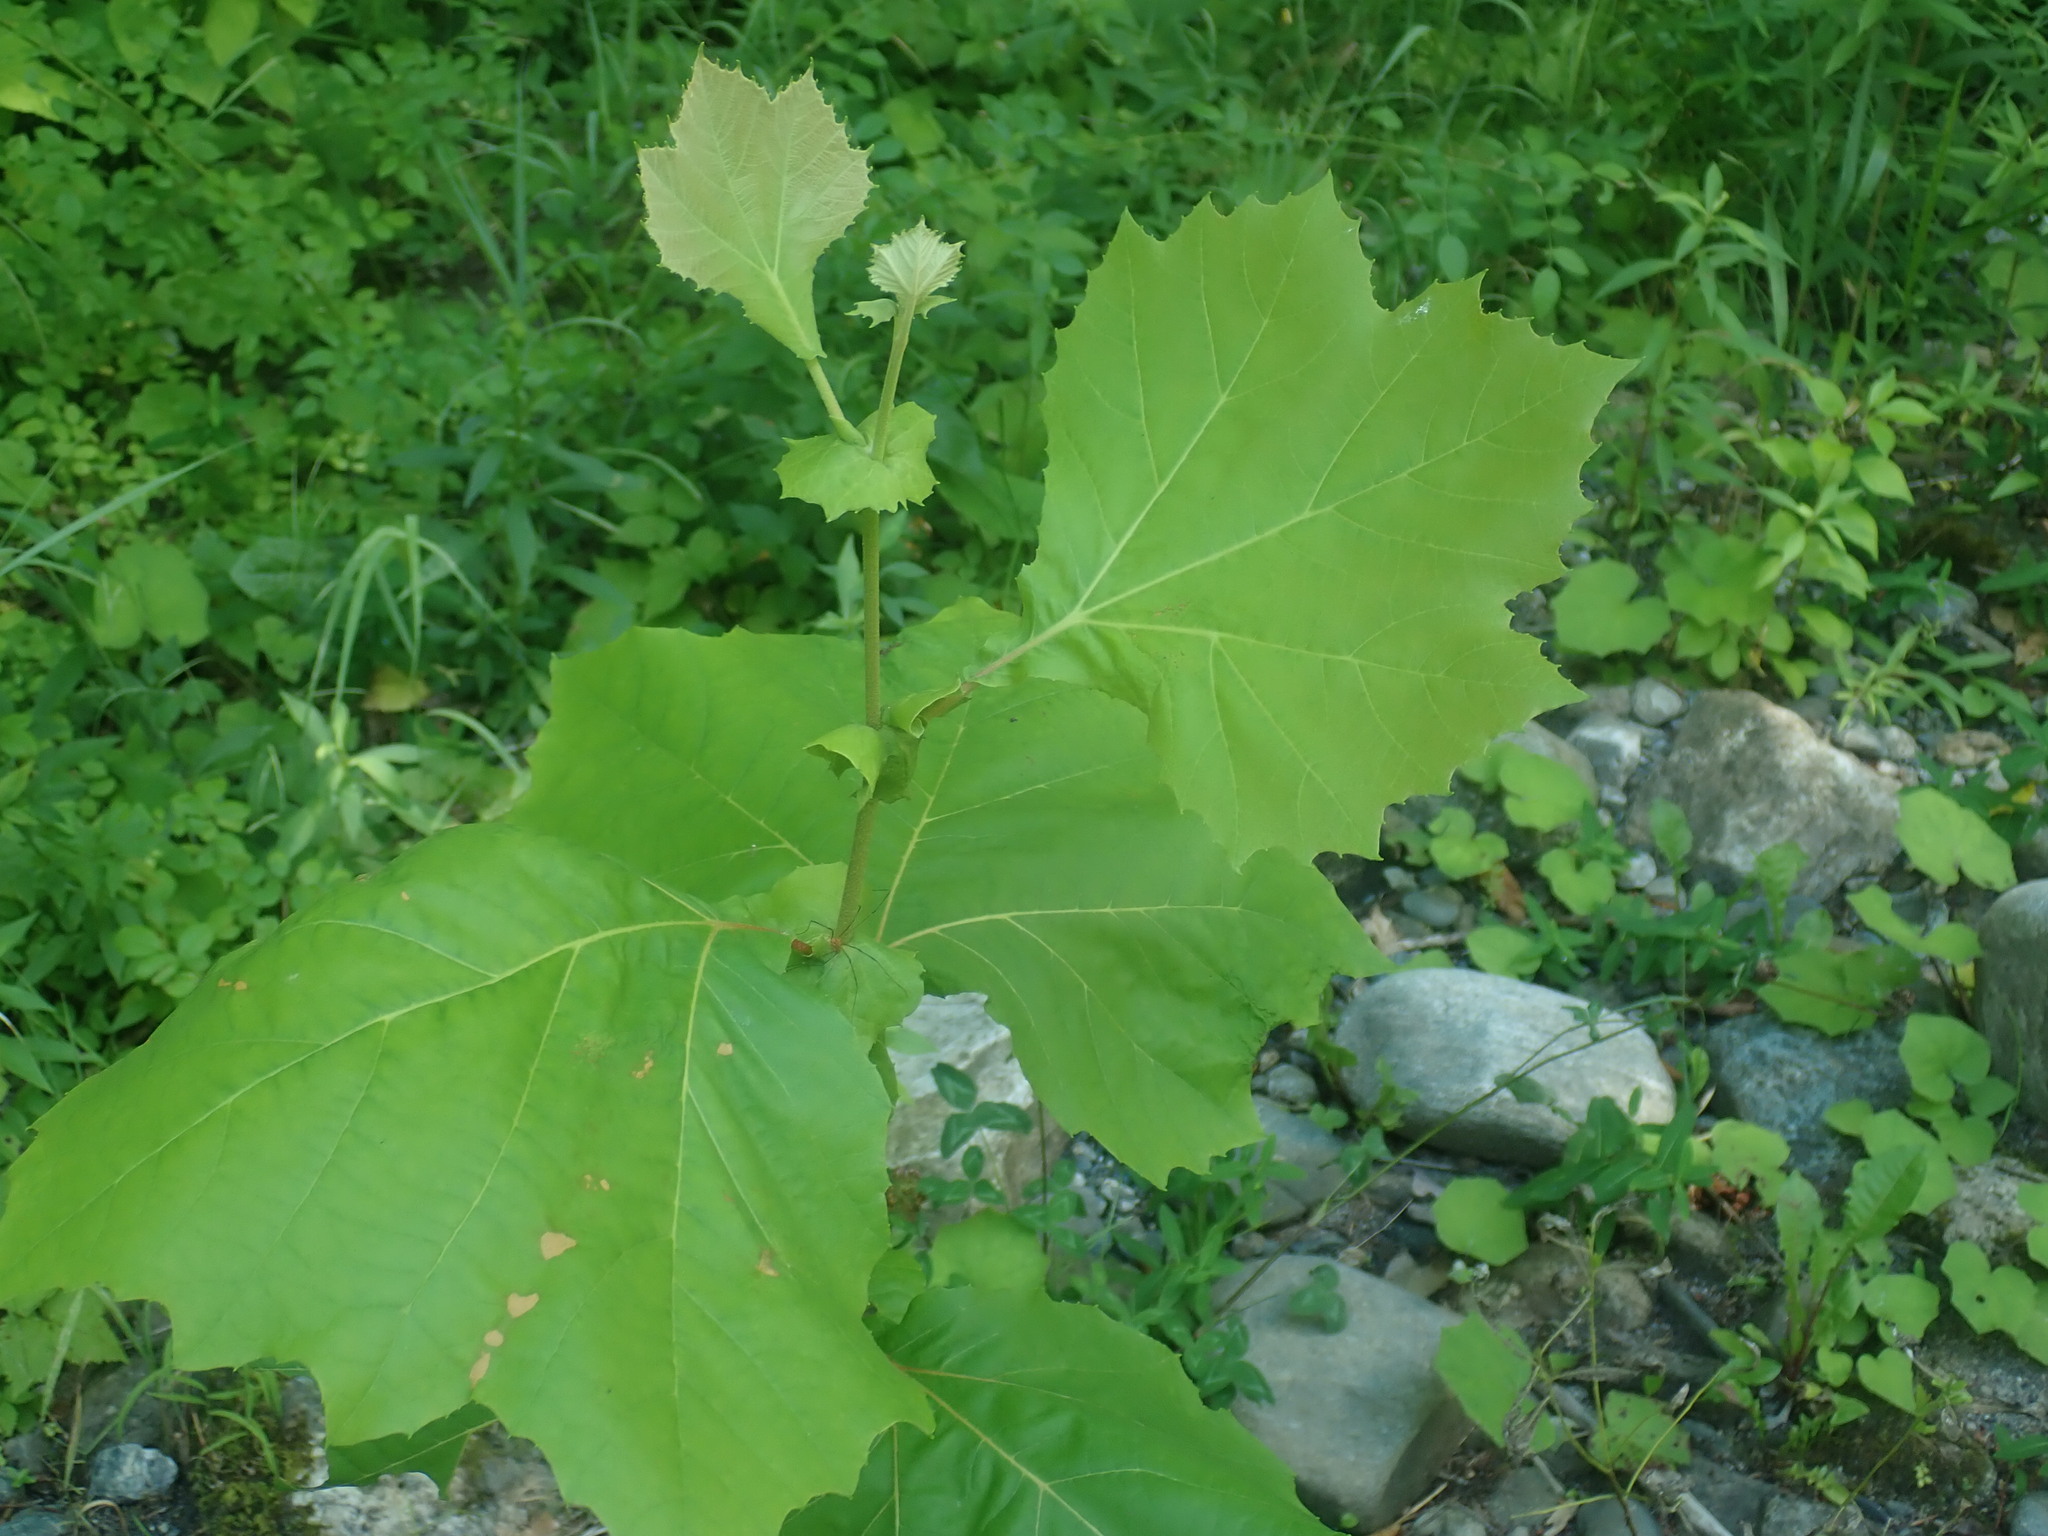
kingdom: Plantae
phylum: Tracheophyta
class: Magnoliopsida
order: Proteales
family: Platanaceae
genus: Platanus
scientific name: Platanus occidentalis
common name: American sycamore
